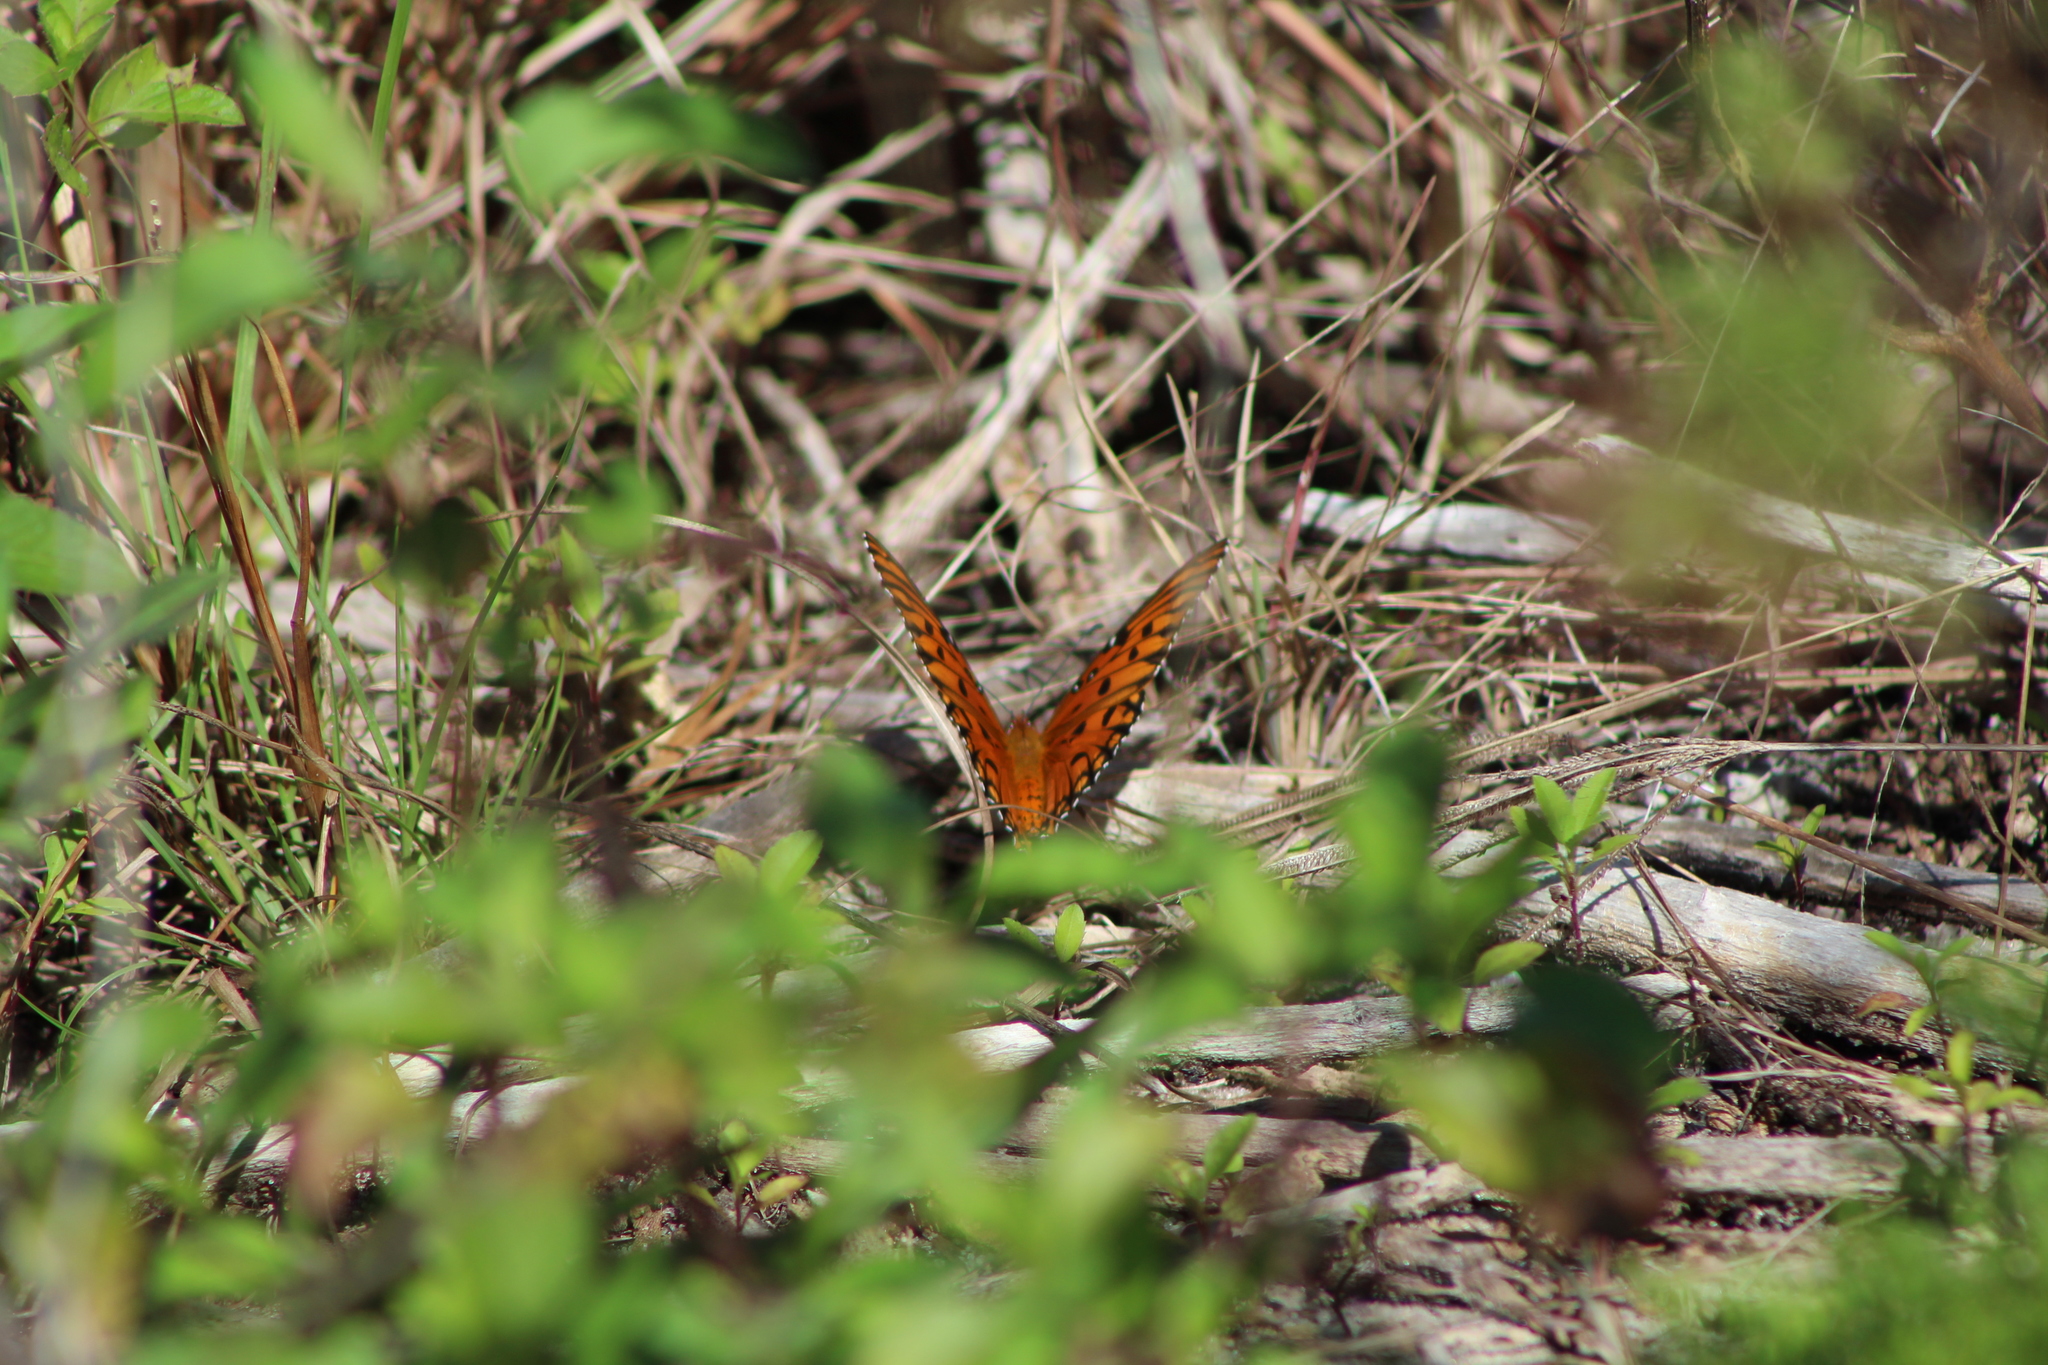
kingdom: Animalia
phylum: Arthropoda
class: Insecta
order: Lepidoptera
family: Nymphalidae
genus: Dione
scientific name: Dione vanillae
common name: Gulf fritillary
